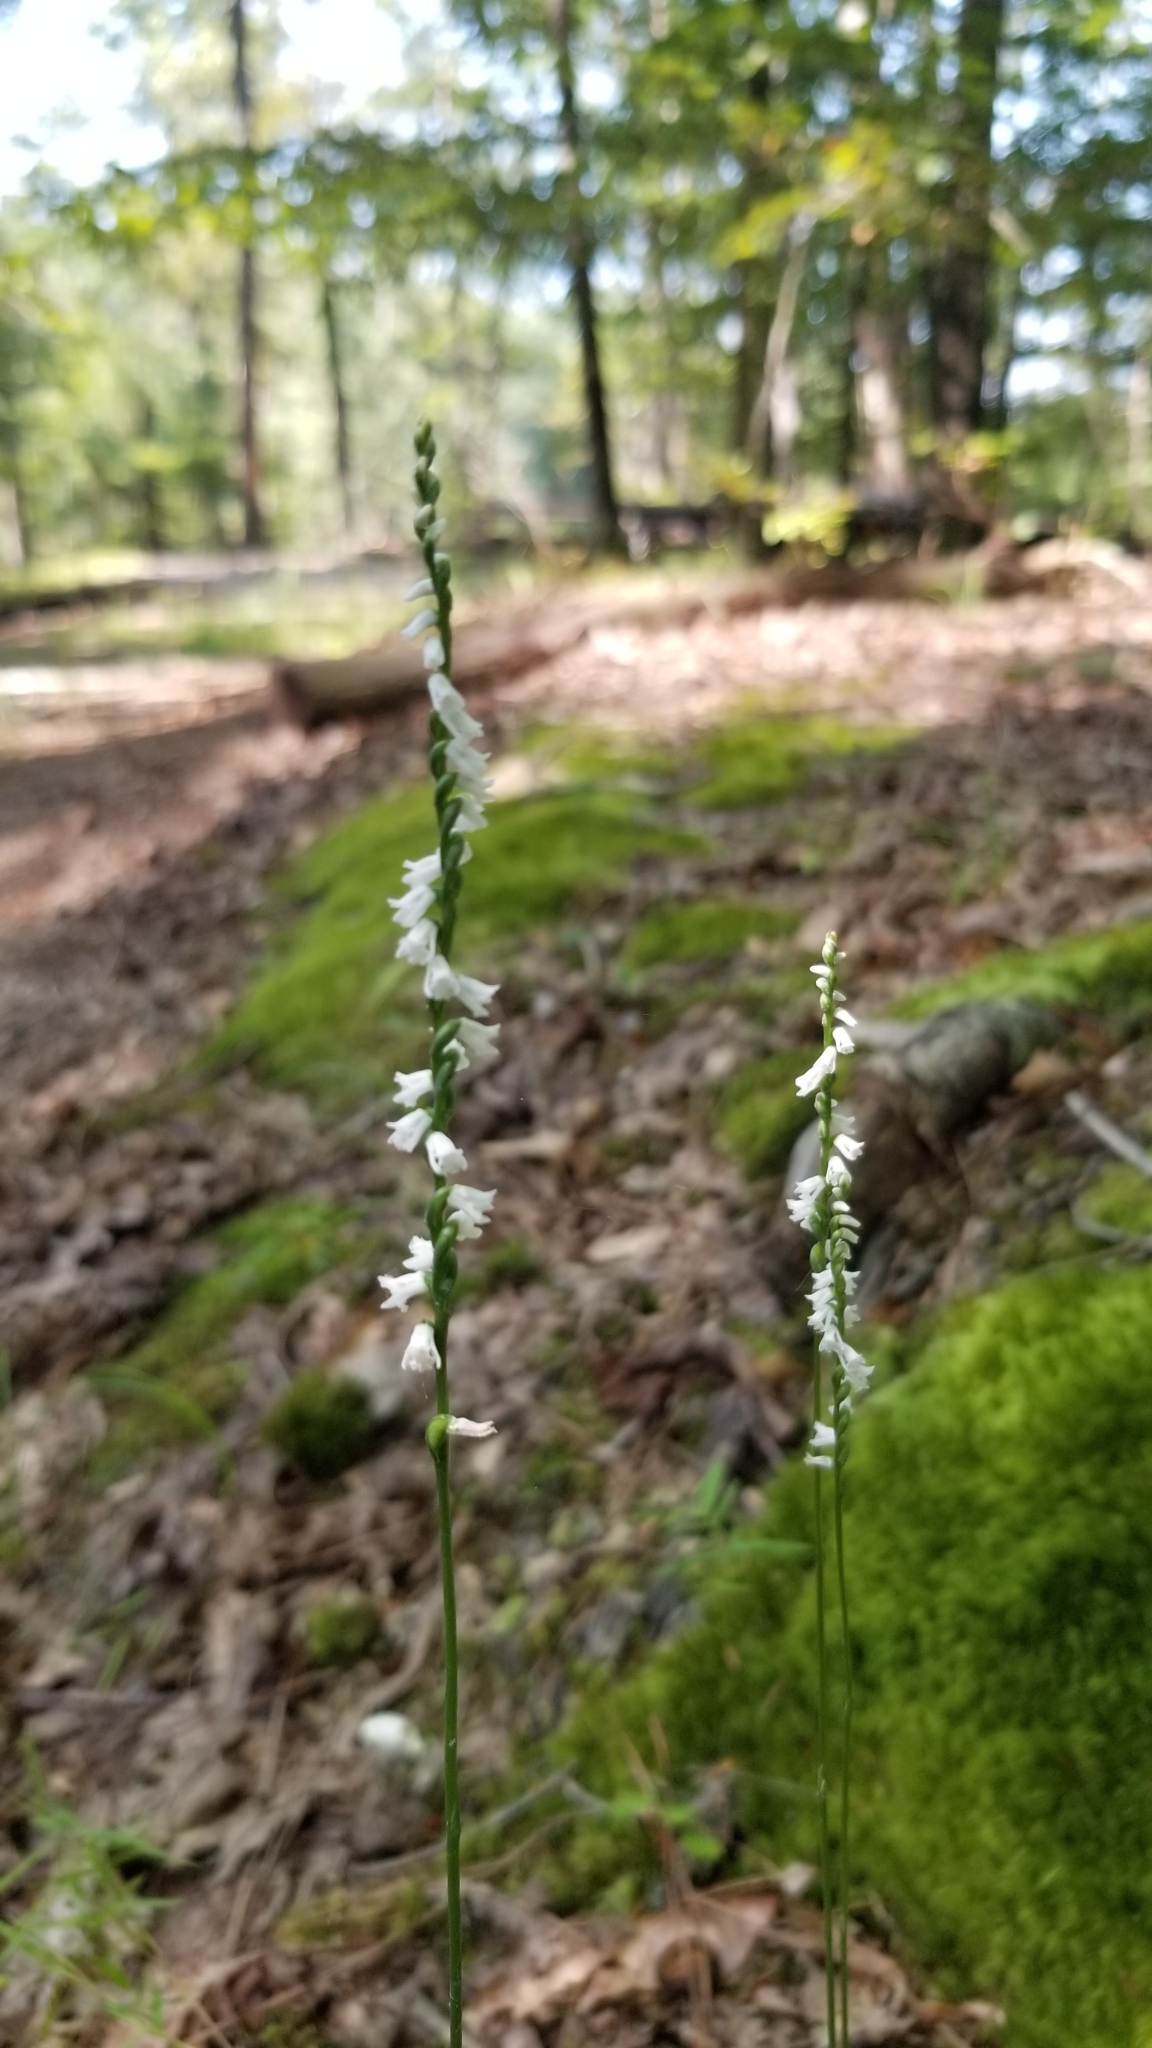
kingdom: Plantae
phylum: Tracheophyta
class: Liliopsida
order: Asparagales
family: Orchidaceae
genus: Spiranthes
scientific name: Spiranthes tuberosa
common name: Little ladies'-tresses
